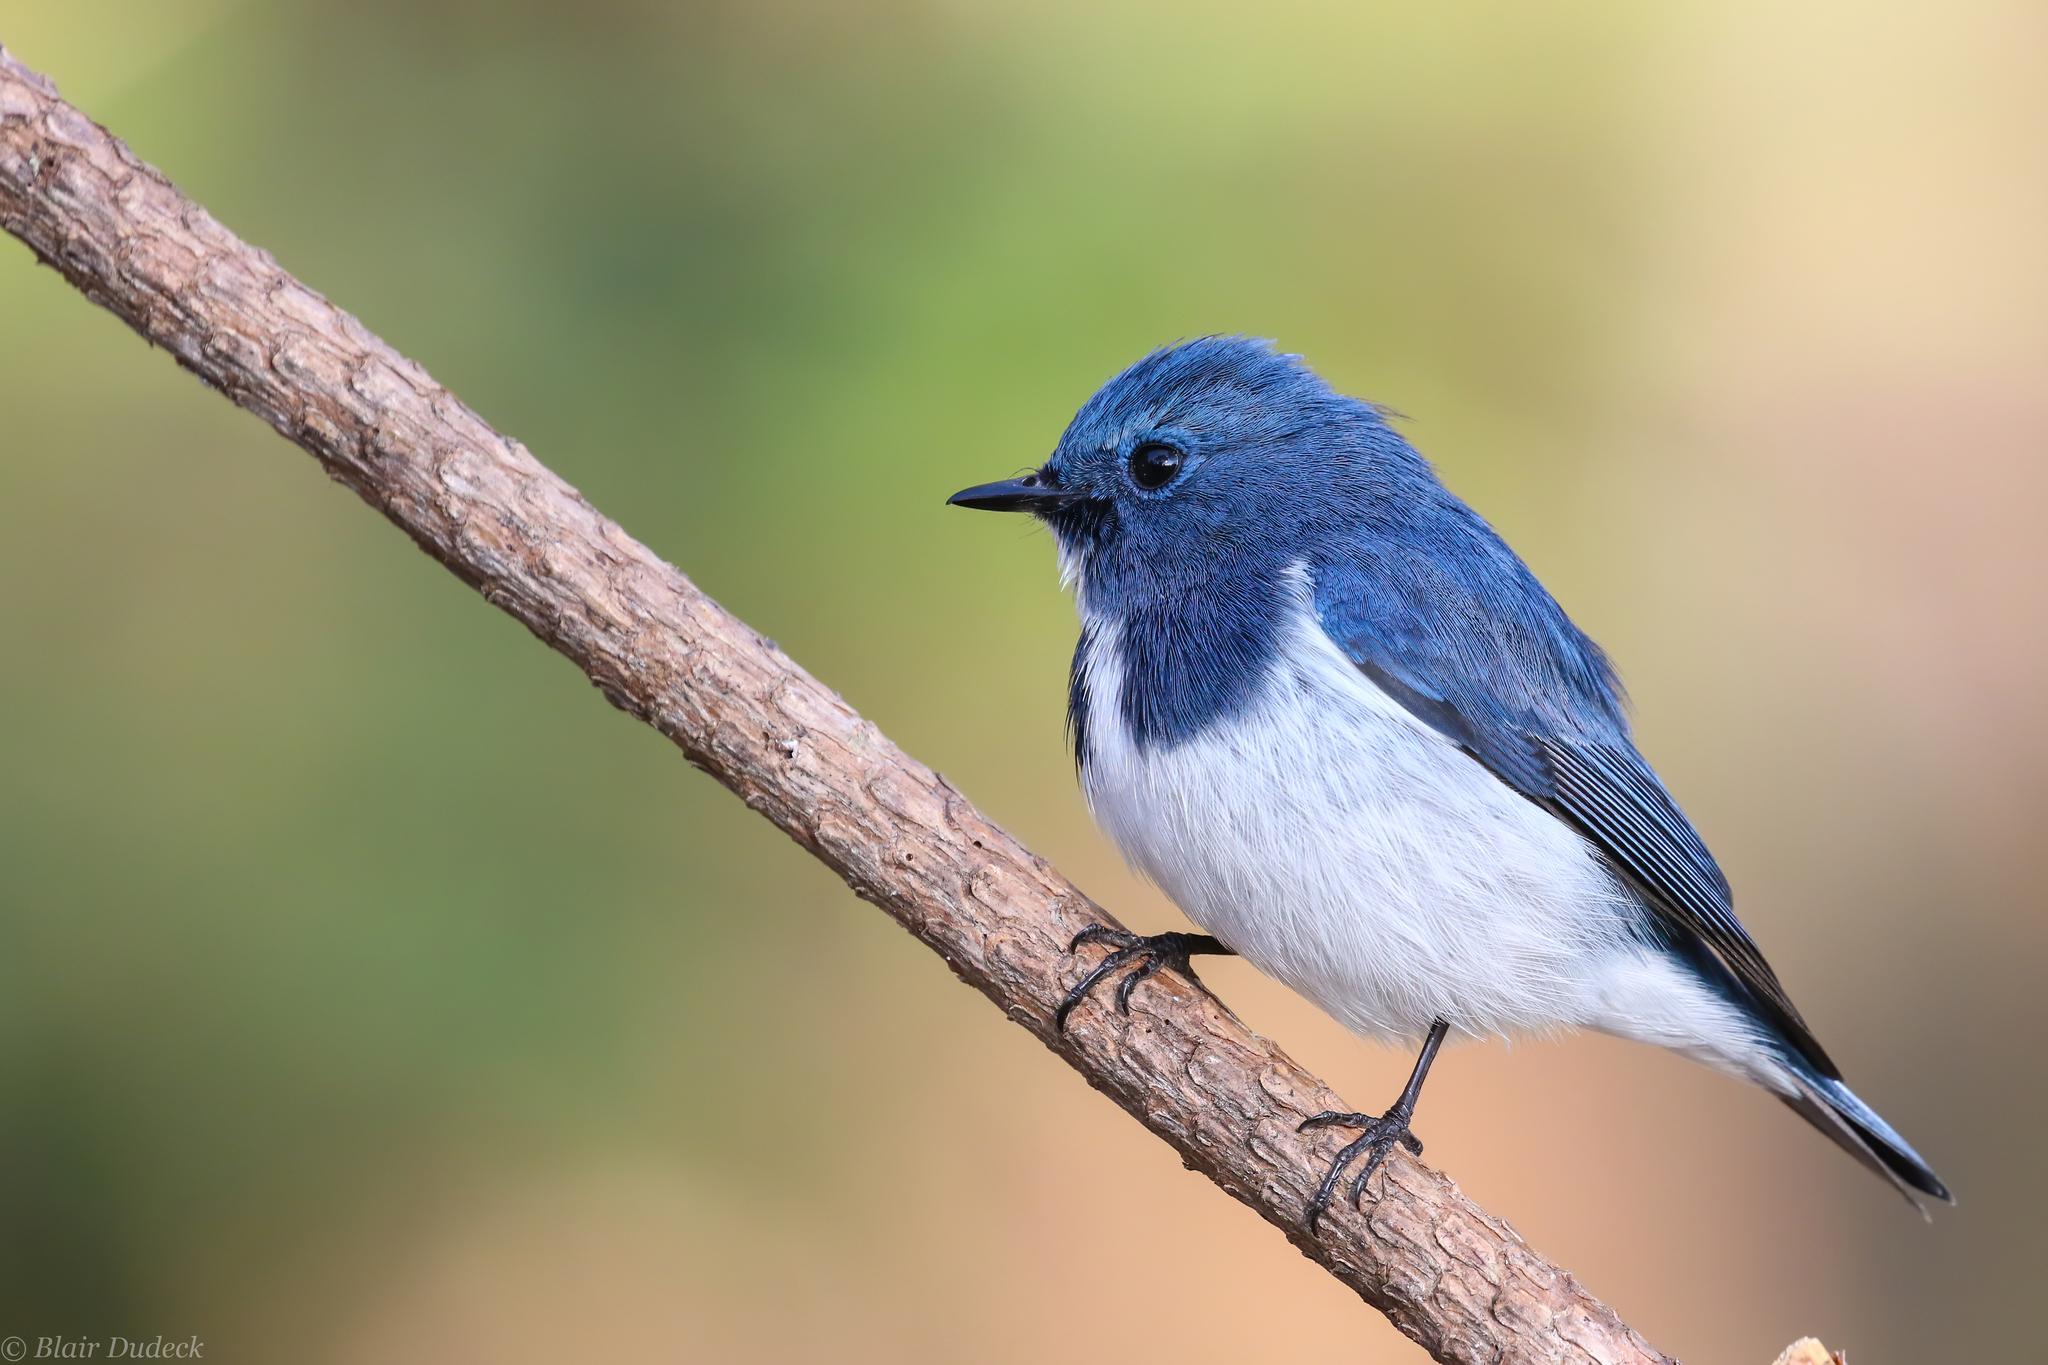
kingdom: Animalia
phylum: Chordata
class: Aves
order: Passeriformes
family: Muscicapidae
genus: Ficedula
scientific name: Ficedula superciliaris
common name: Ultramarine flycatcher
